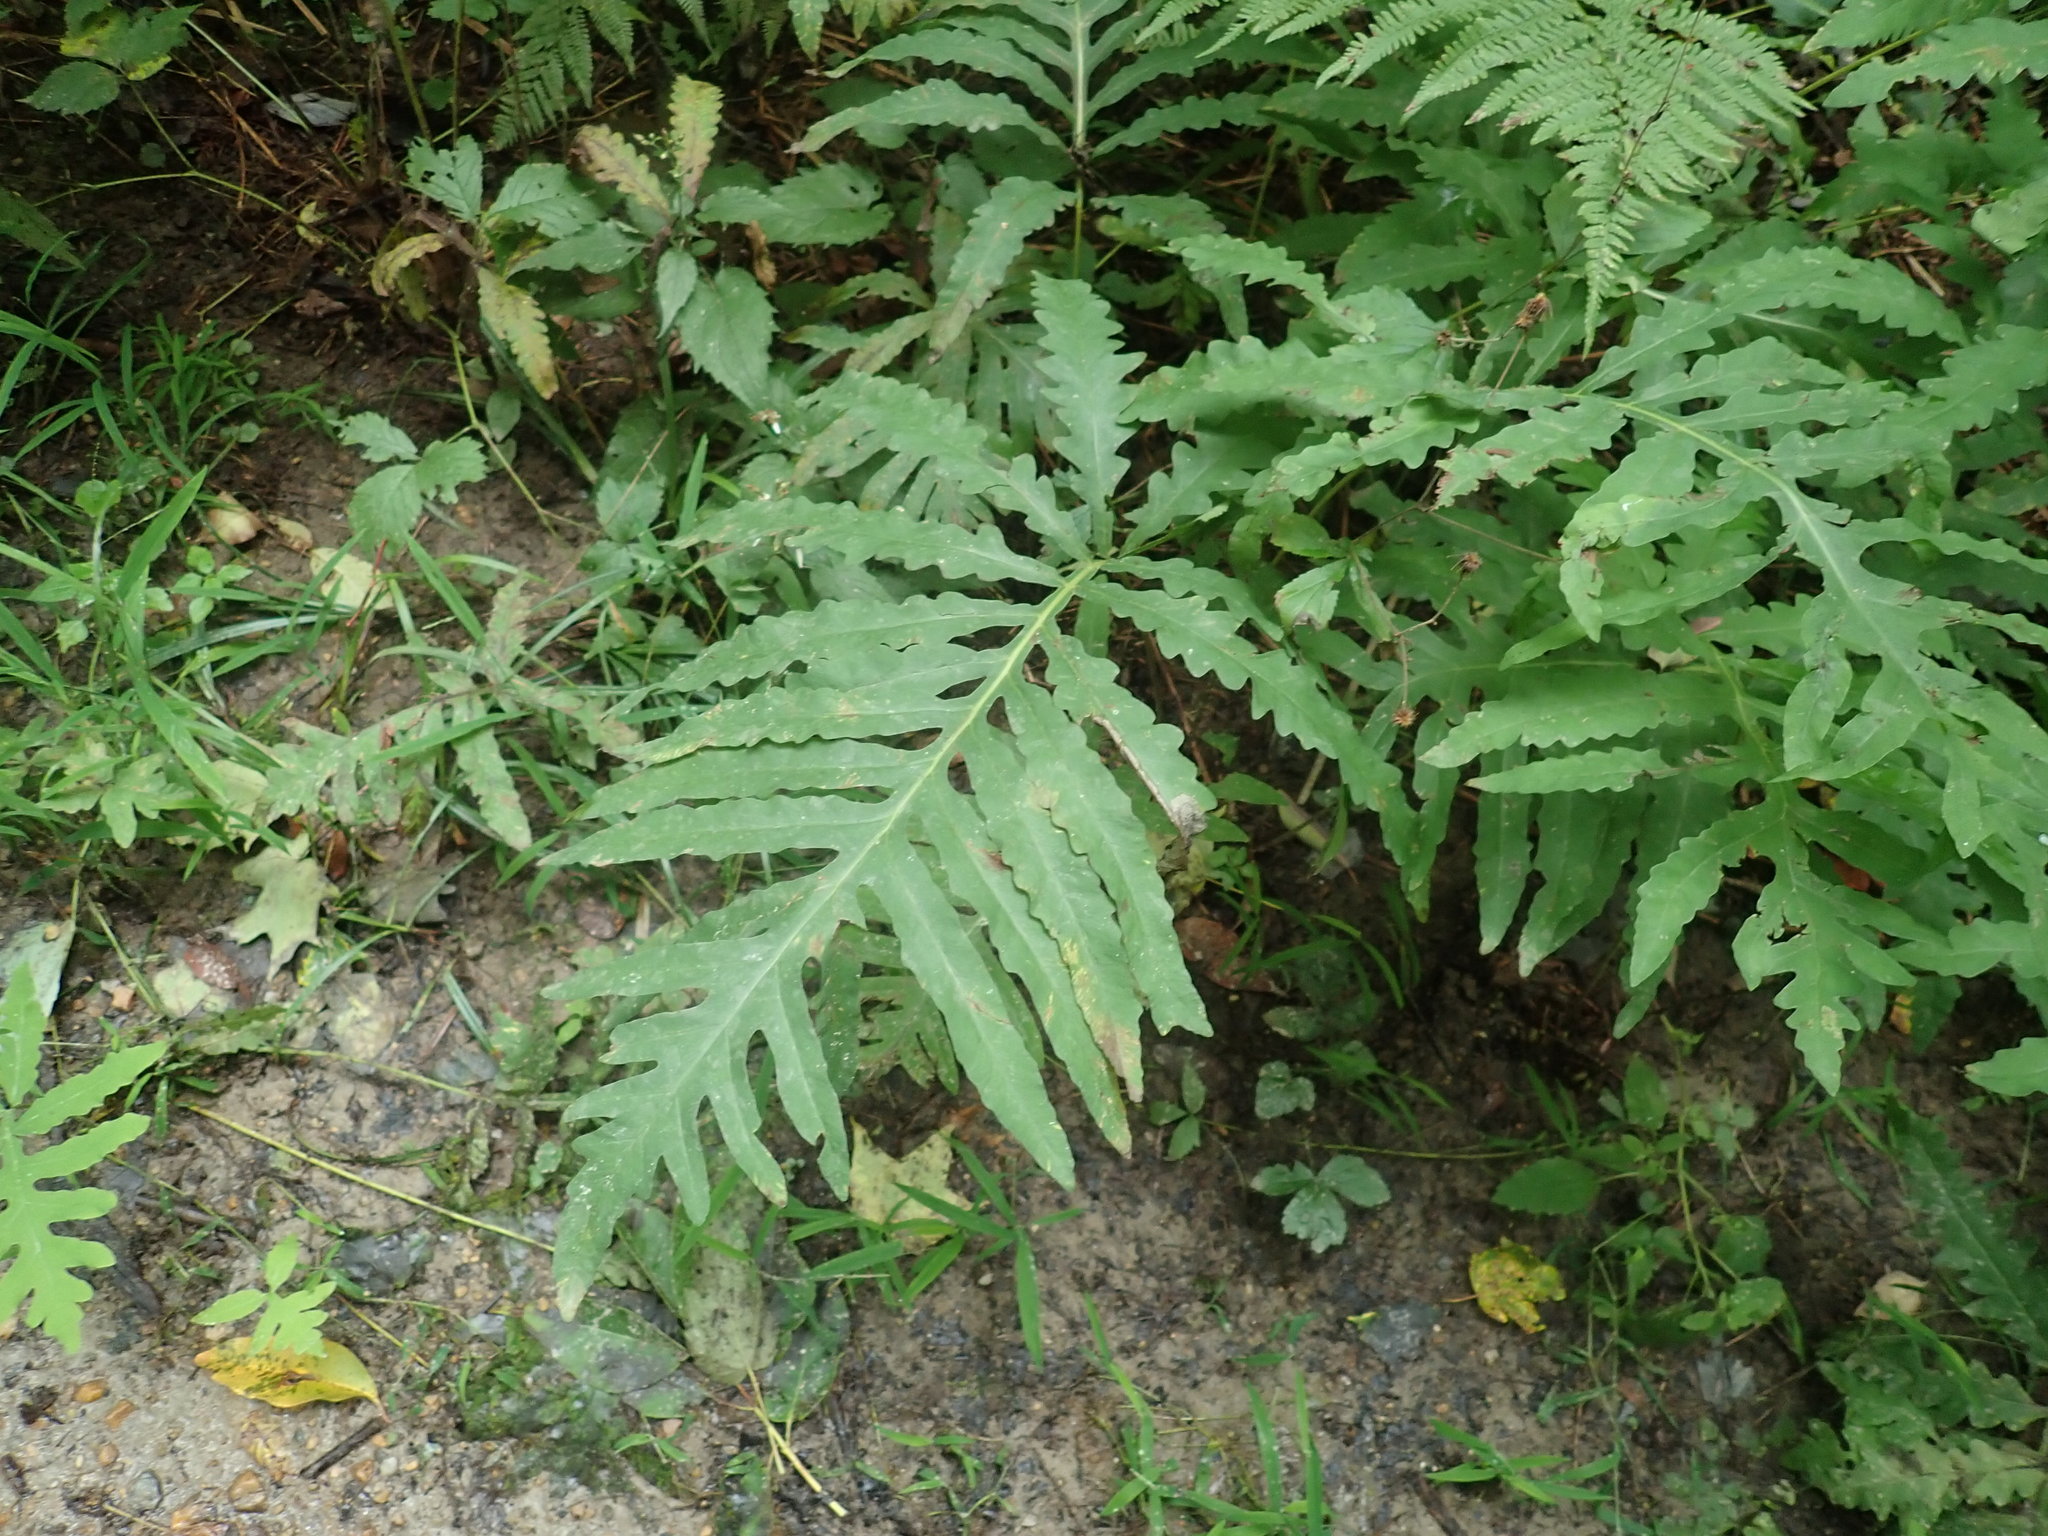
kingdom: Plantae
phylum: Tracheophyta
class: Polypodiopsida
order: Polypodiales
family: Onocleaceae
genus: Onoclea
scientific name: Onoclea sensibilis
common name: Sensitive fern
